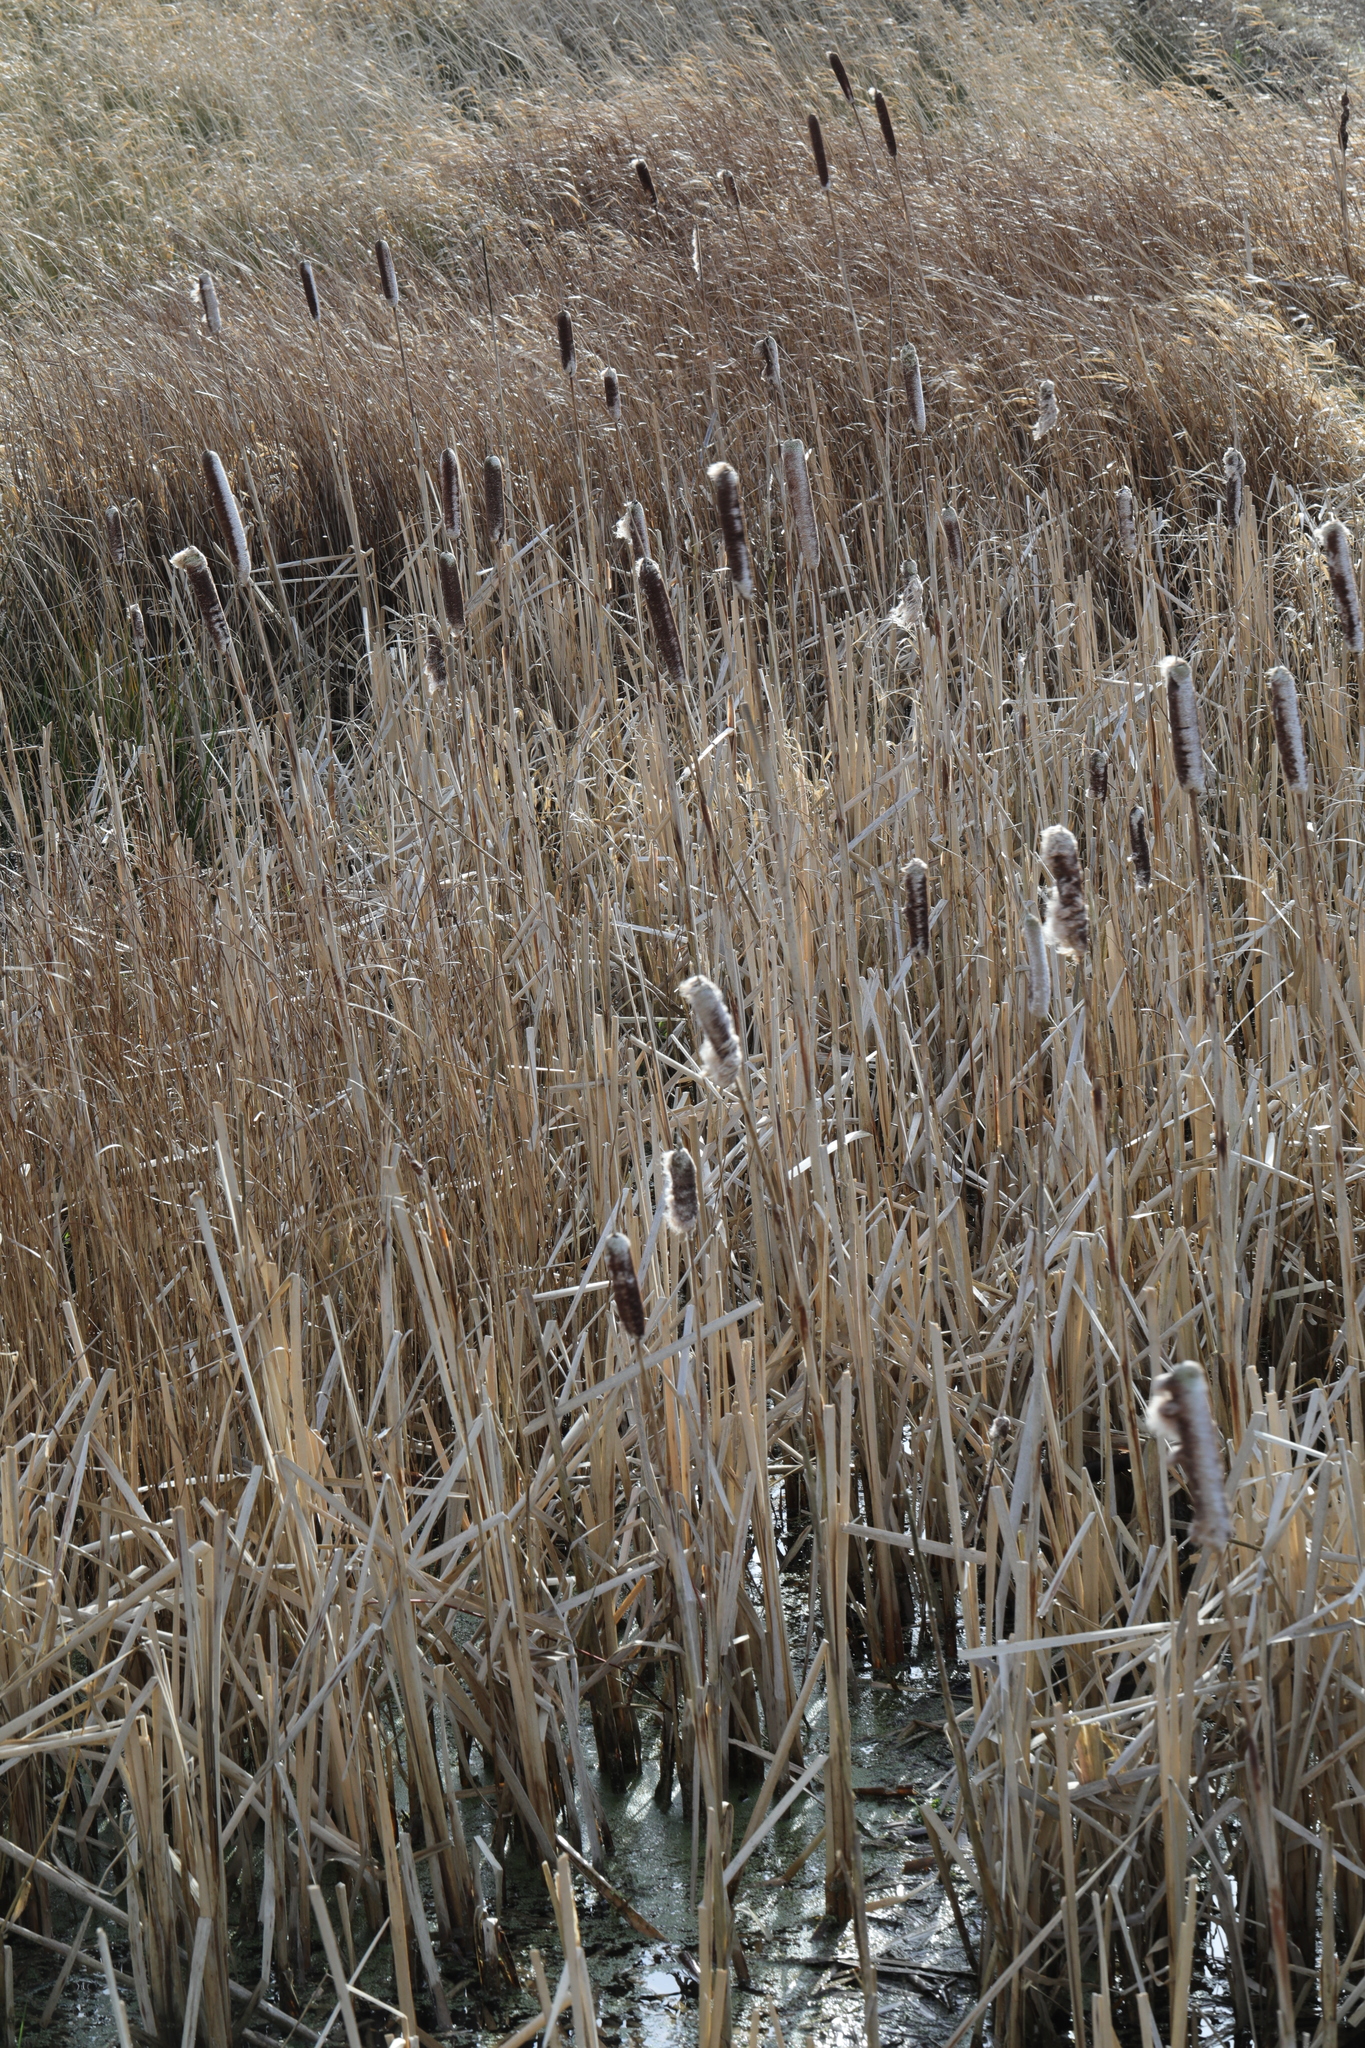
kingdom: Plantae
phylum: Tracheophyta
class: Liliopsida
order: Poales
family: Typhaceae
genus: Typha
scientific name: Typha latifolia
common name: Broadleaf cattail
